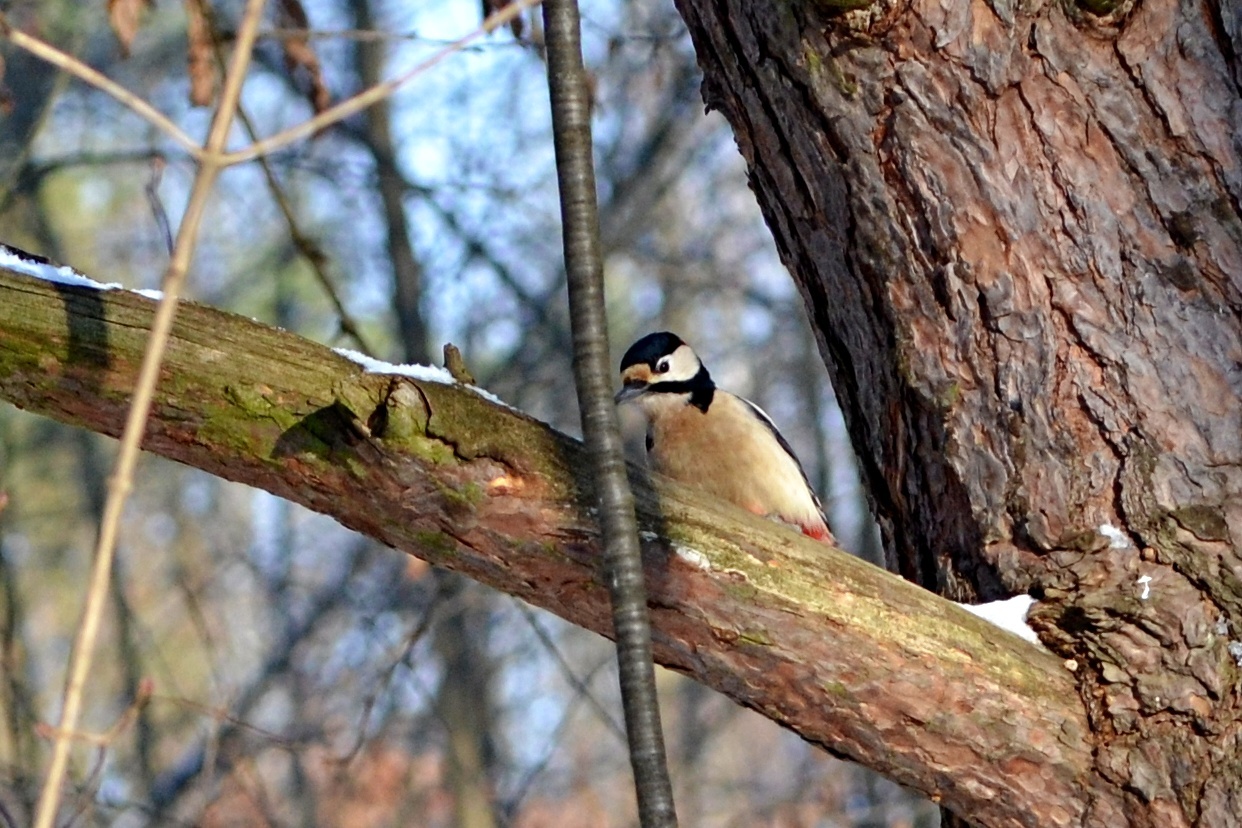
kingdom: Animalia
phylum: Chordata
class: Aves
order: Piciformes
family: Picidae
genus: Dendrocopos
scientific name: Dendrocopos major
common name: Great spotted woodpecker
